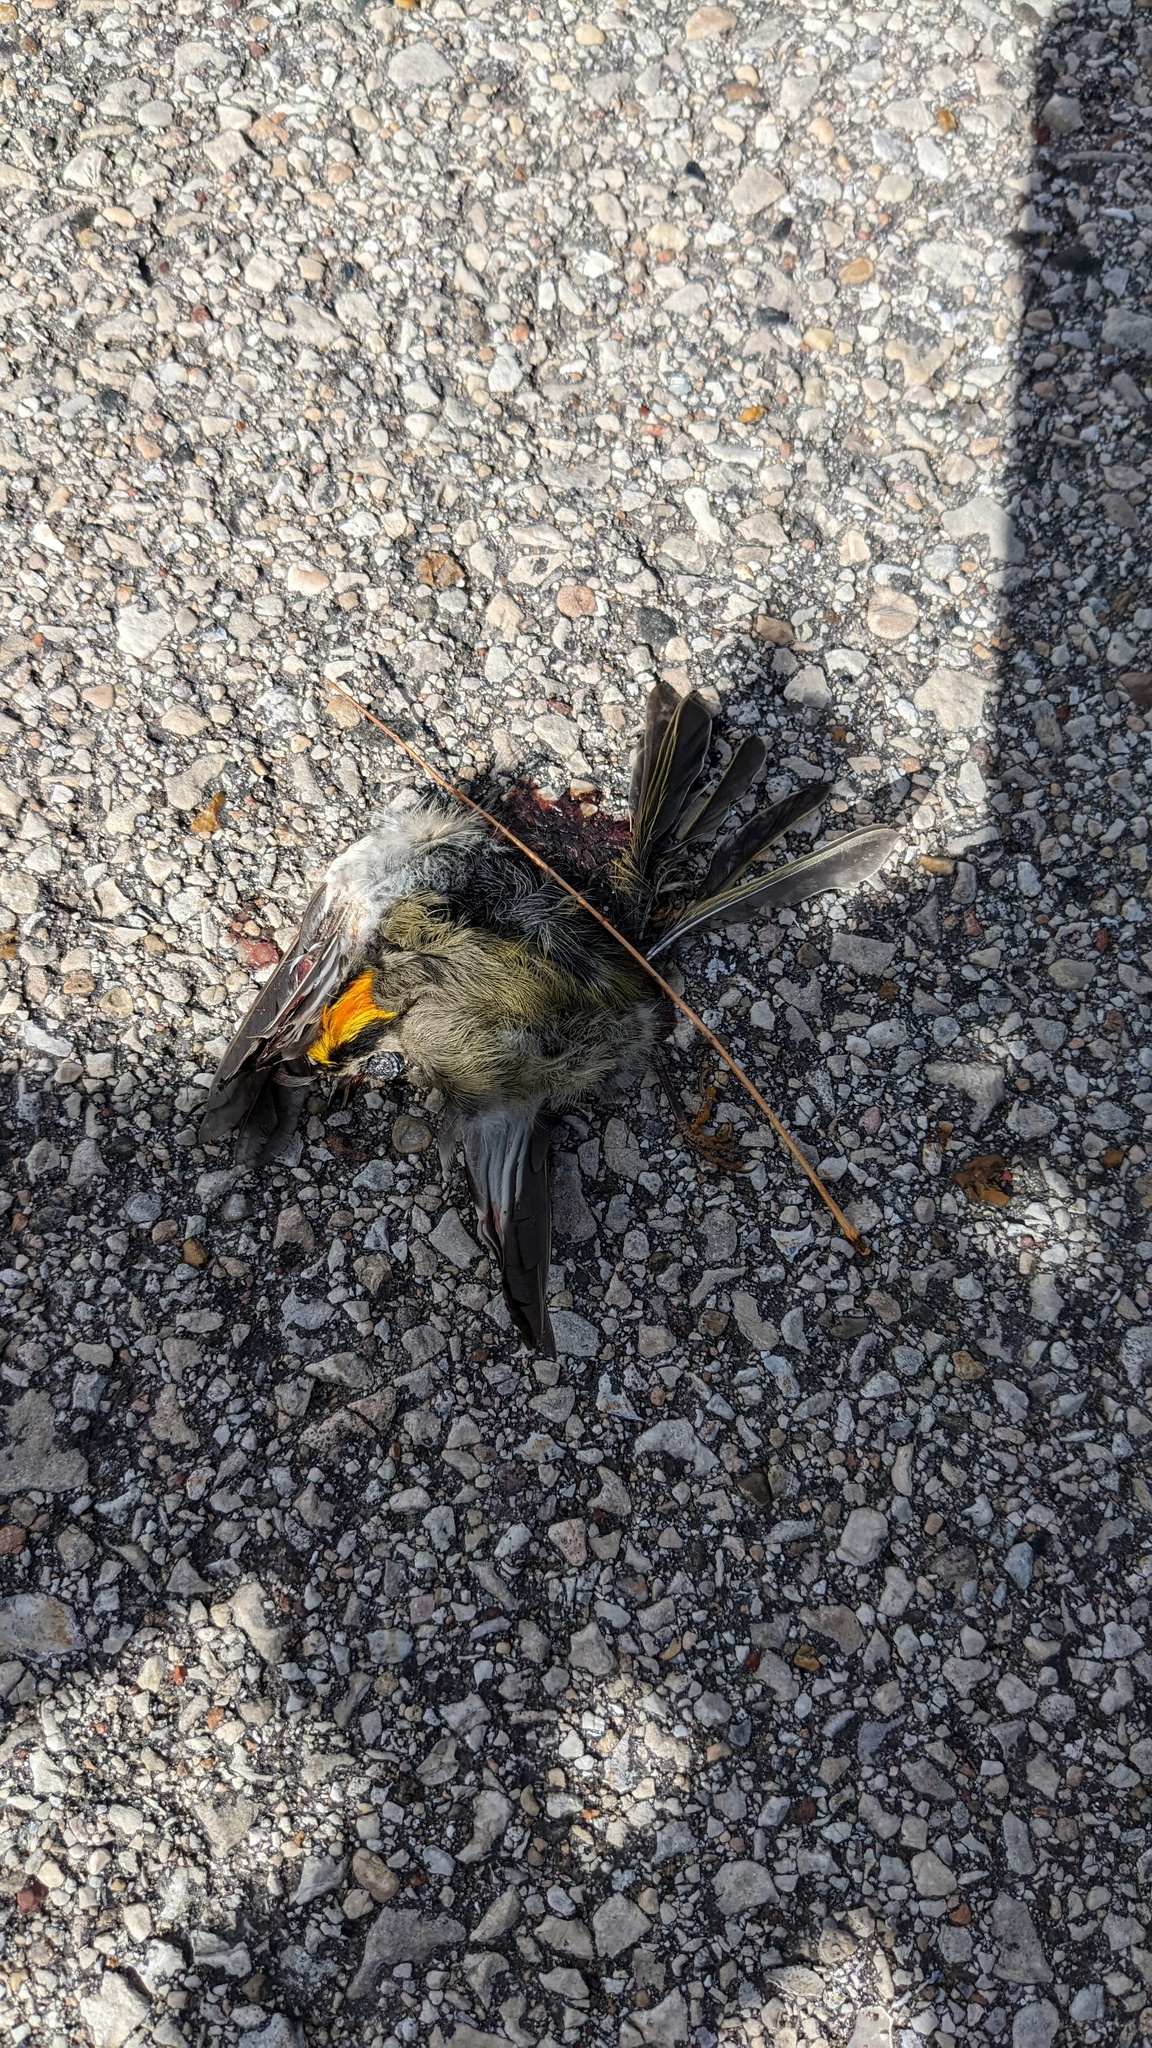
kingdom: Animalia
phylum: Chordata
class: Aves
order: Passeriformes
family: Regulidae
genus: Regulus
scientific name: Regulus satrapa
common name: Golden-crowned kinglet
